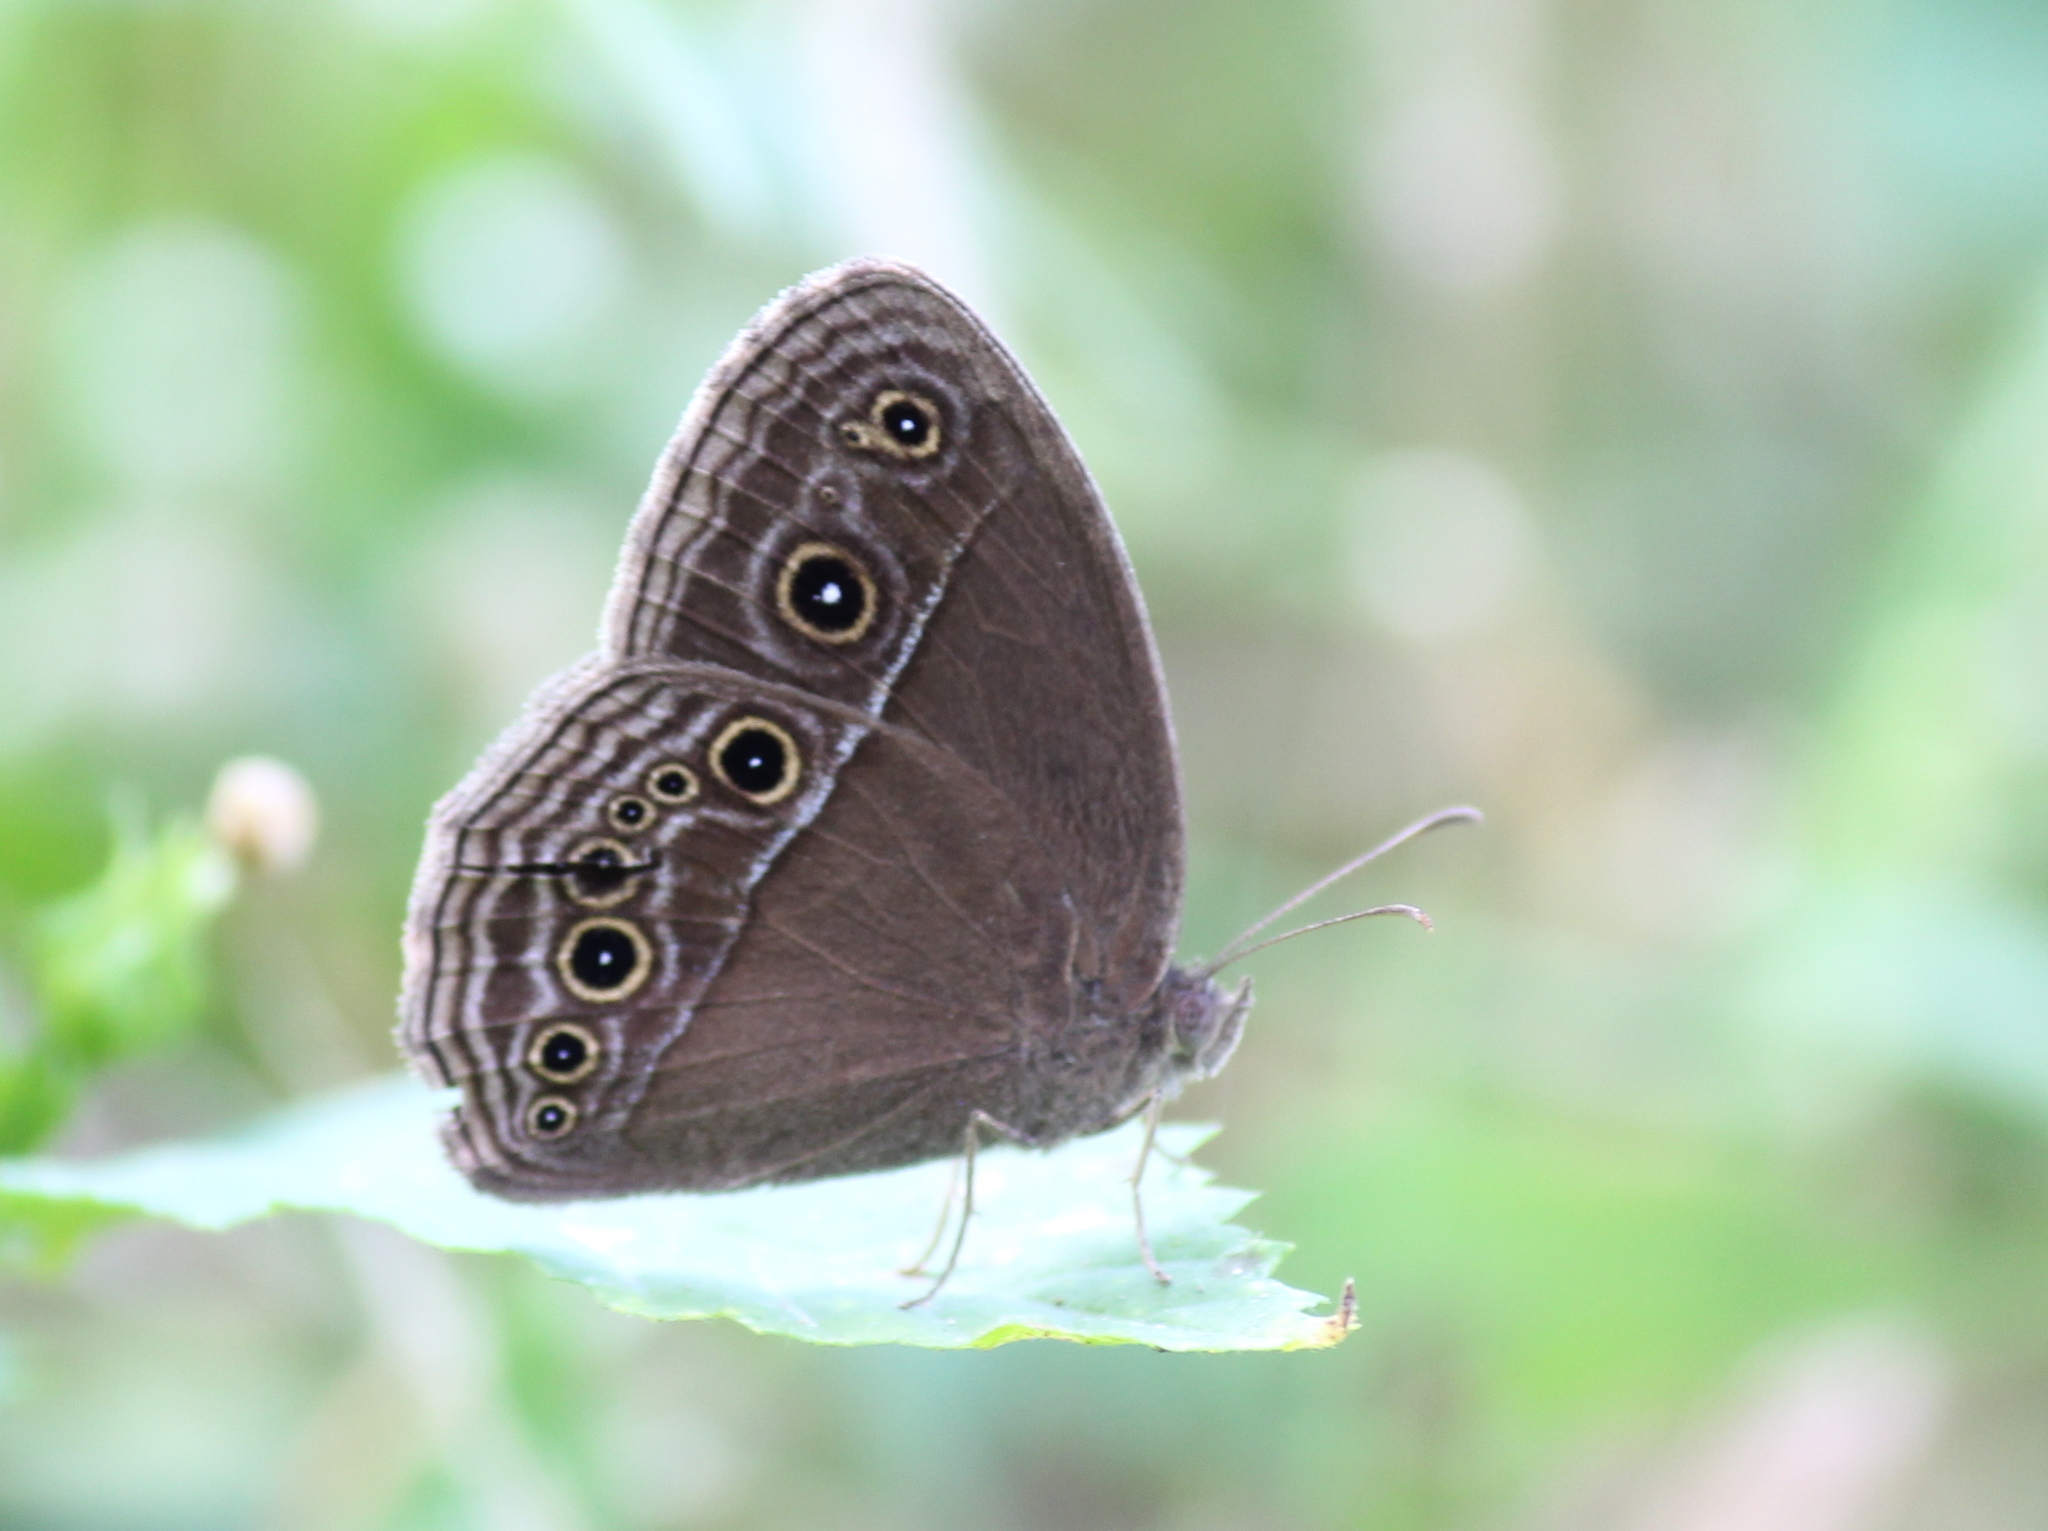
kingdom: Animalia
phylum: Arthropoda
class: Insecta
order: Lepidoptera
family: Nymphalidae
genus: Mycalesis
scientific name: Mycalesis perseus
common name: Dingy bushbrown
